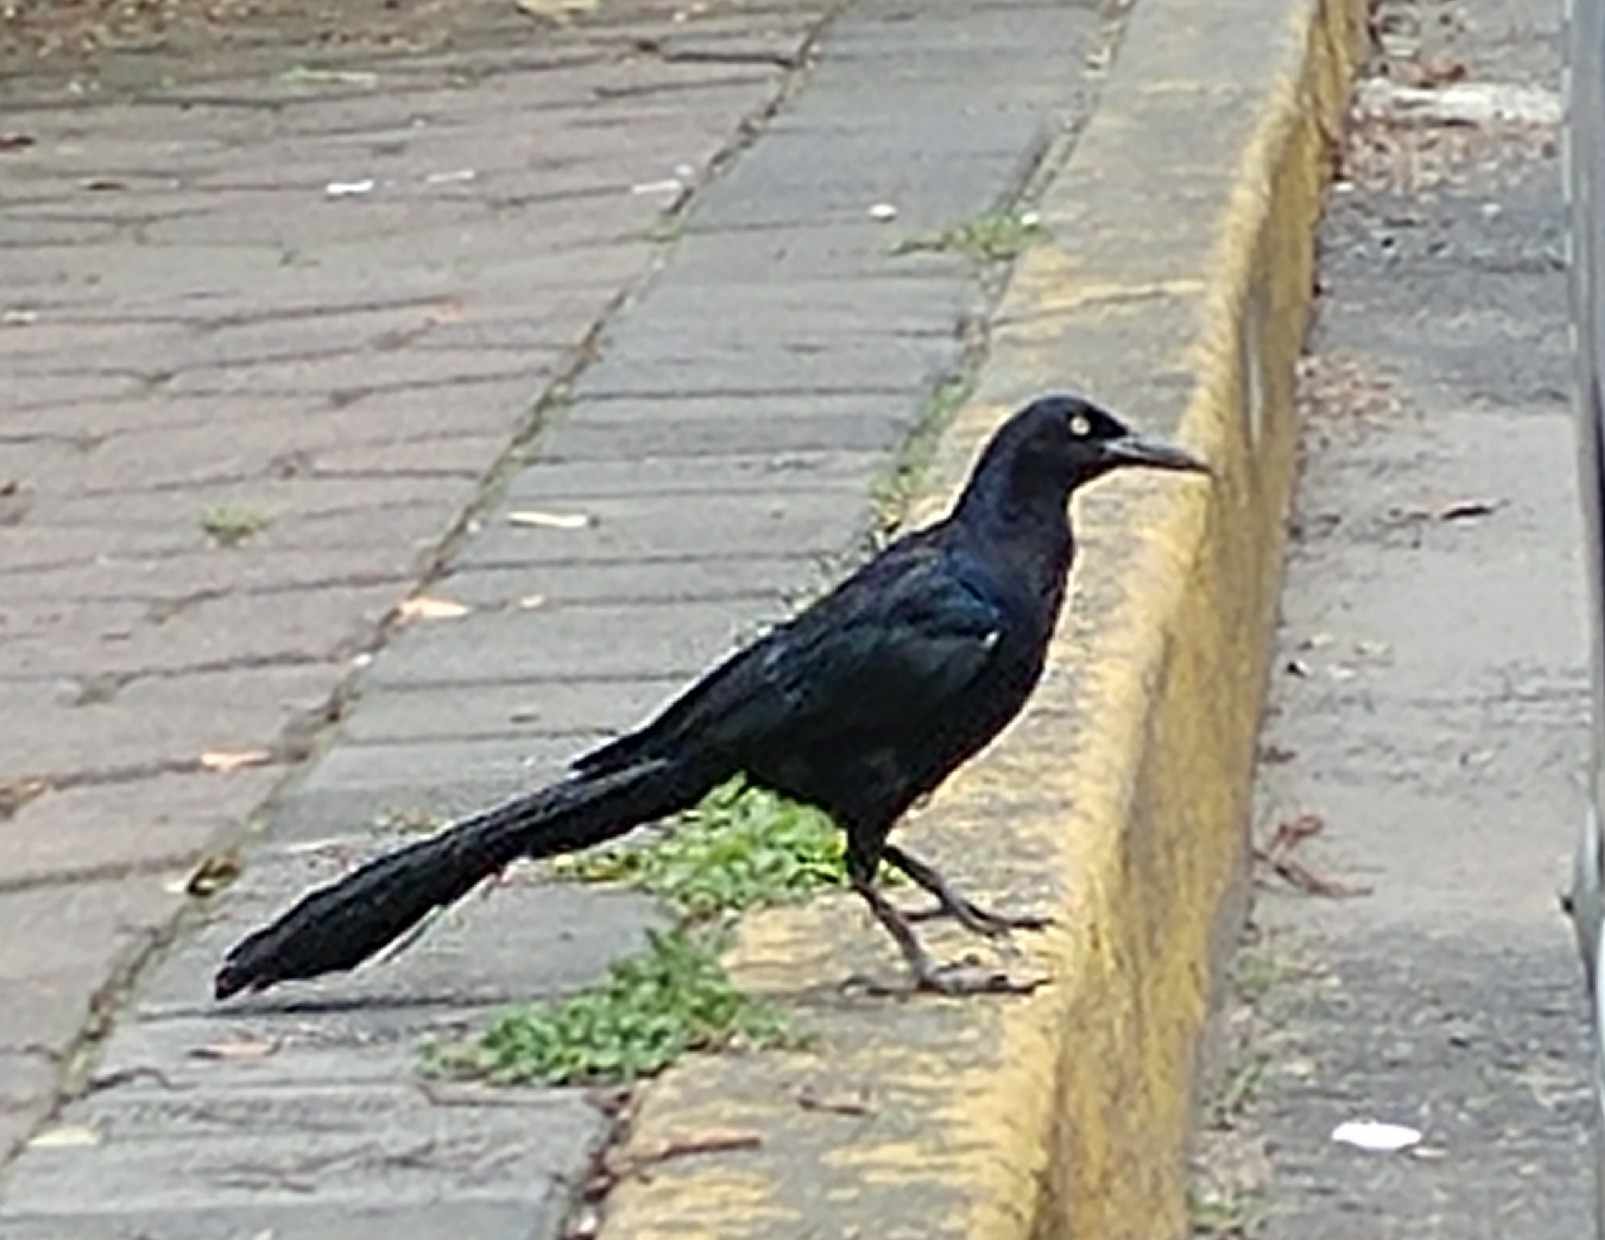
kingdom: Animalia
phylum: Chordata
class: Aves
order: Passeriformes
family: Icteridae
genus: Quiscalus
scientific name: Quiscalus mexicanus
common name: Great-tailed grackle
